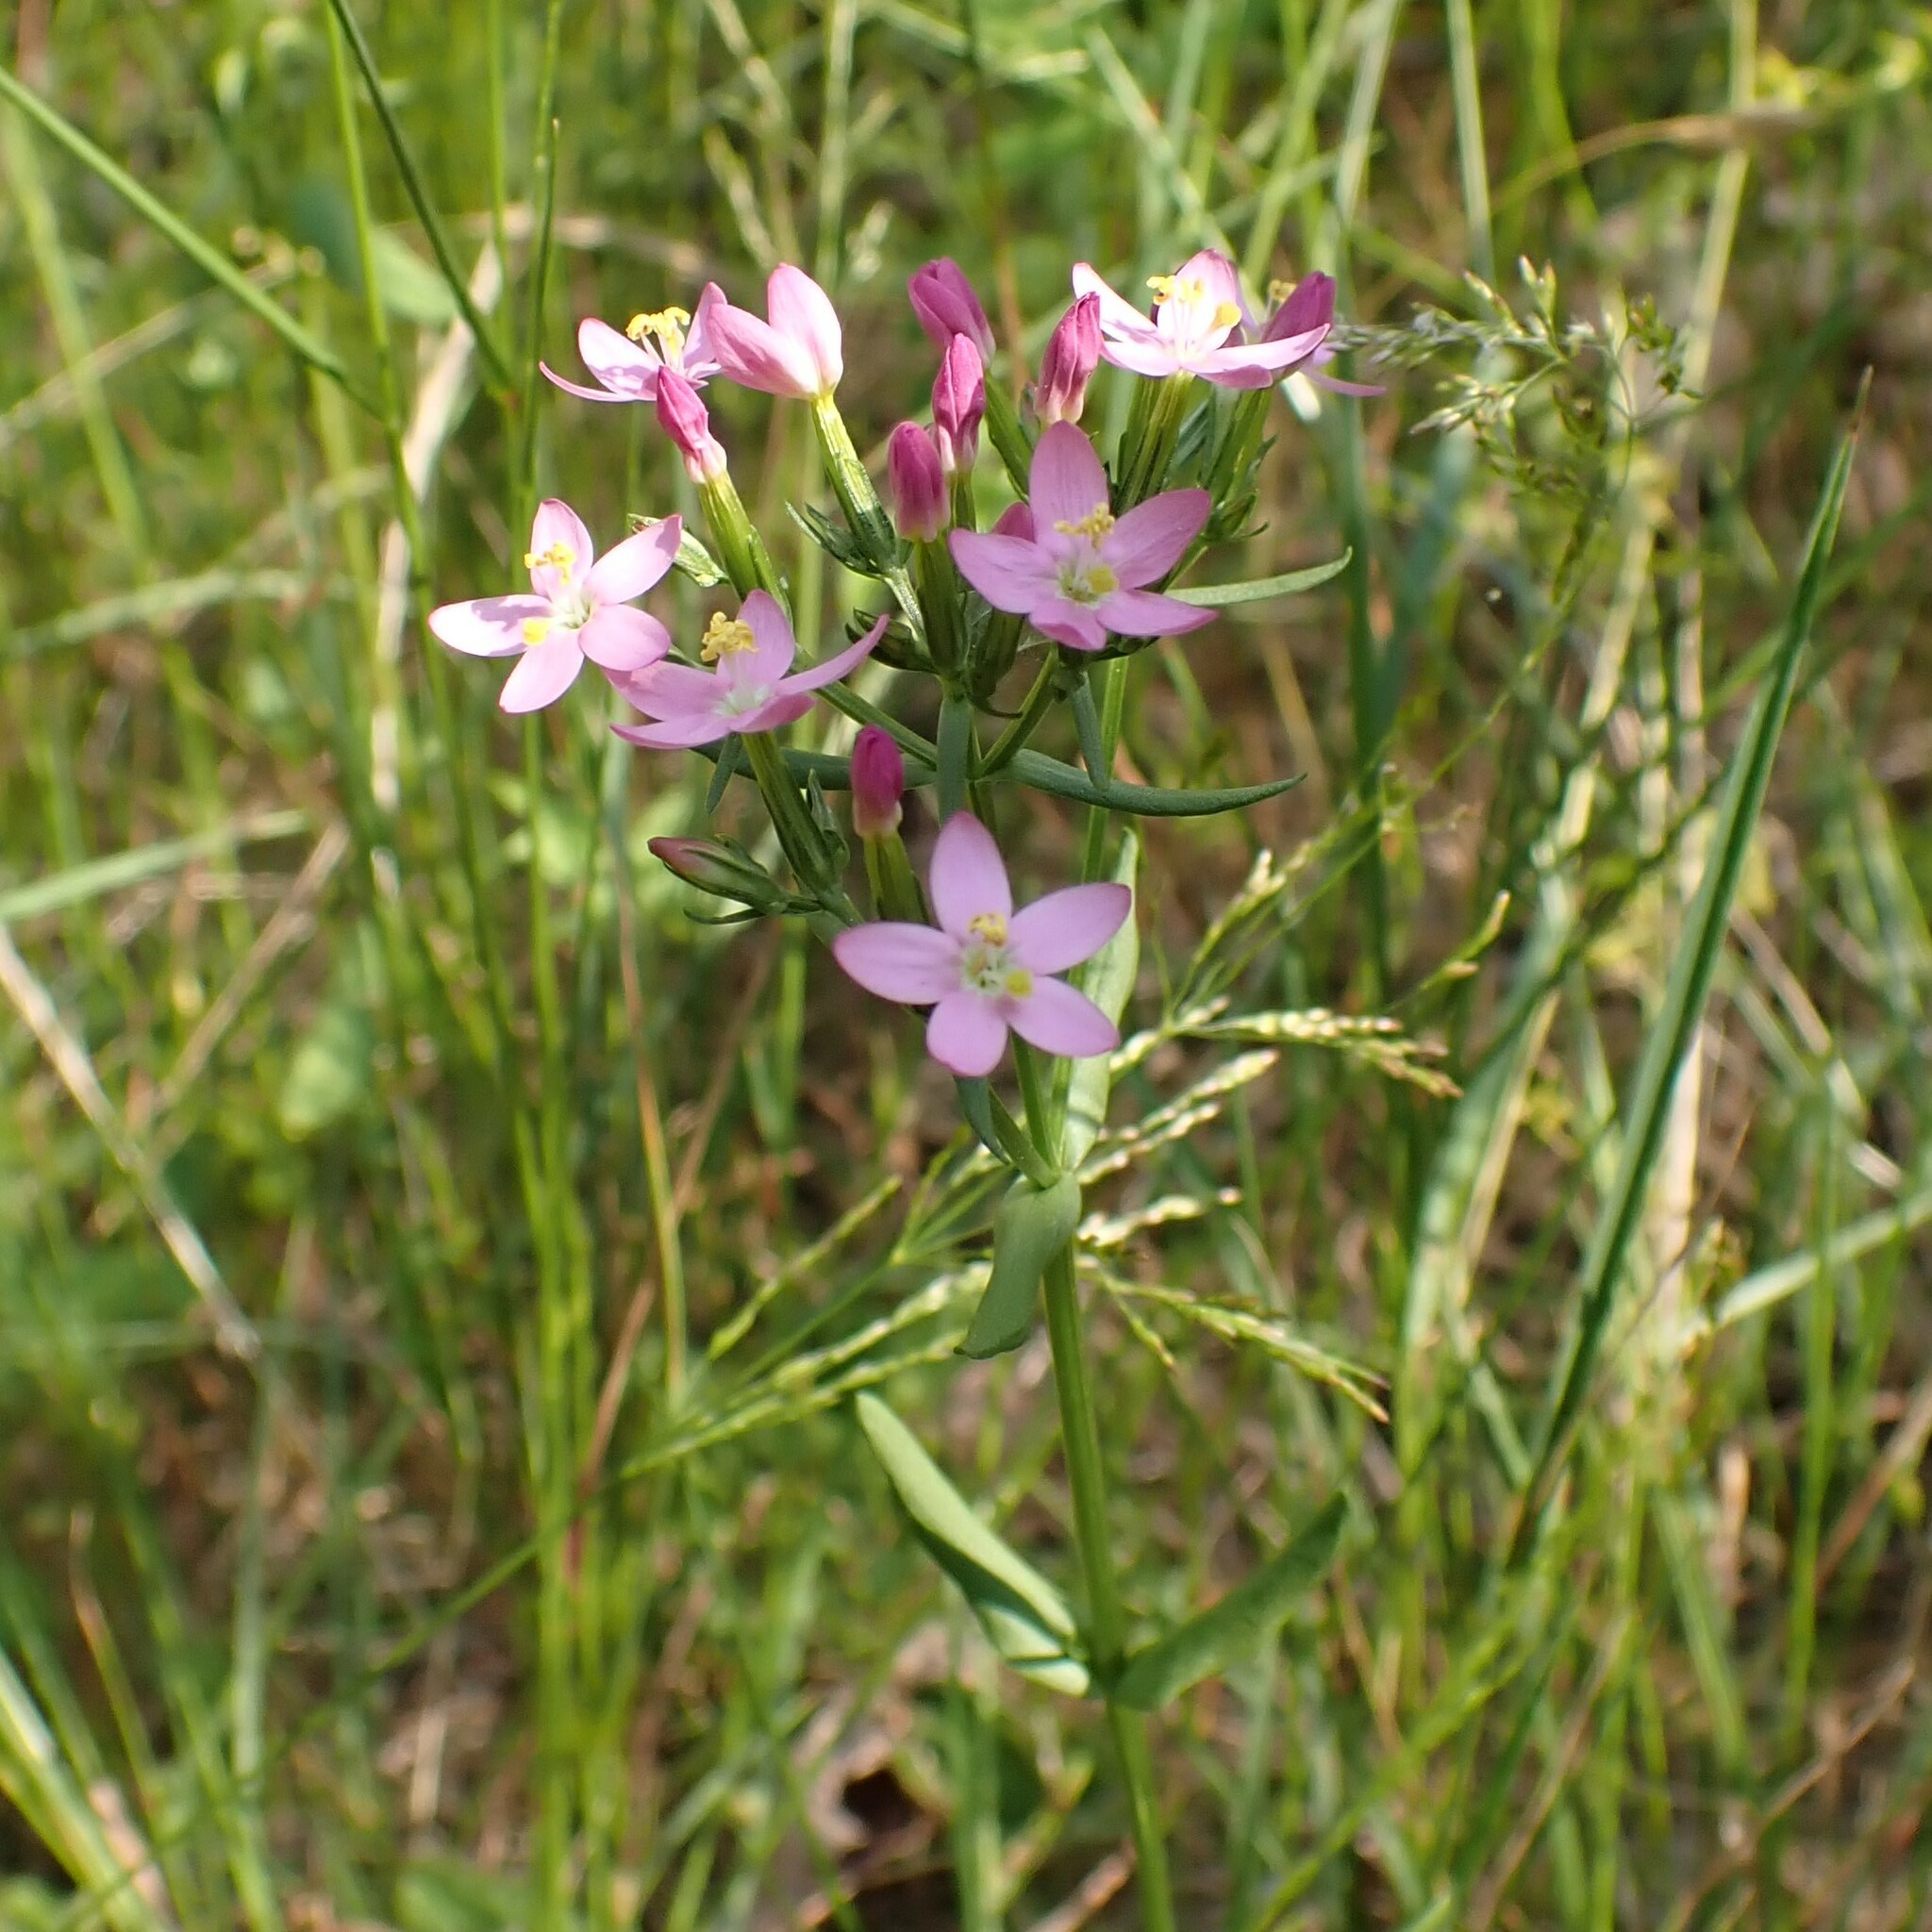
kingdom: Plantae
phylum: Tracheophyta
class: Magnoliopsida
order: Gentianales
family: Gentianaceae
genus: Centaurium
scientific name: Centaurium erythraea
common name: Common centaury
